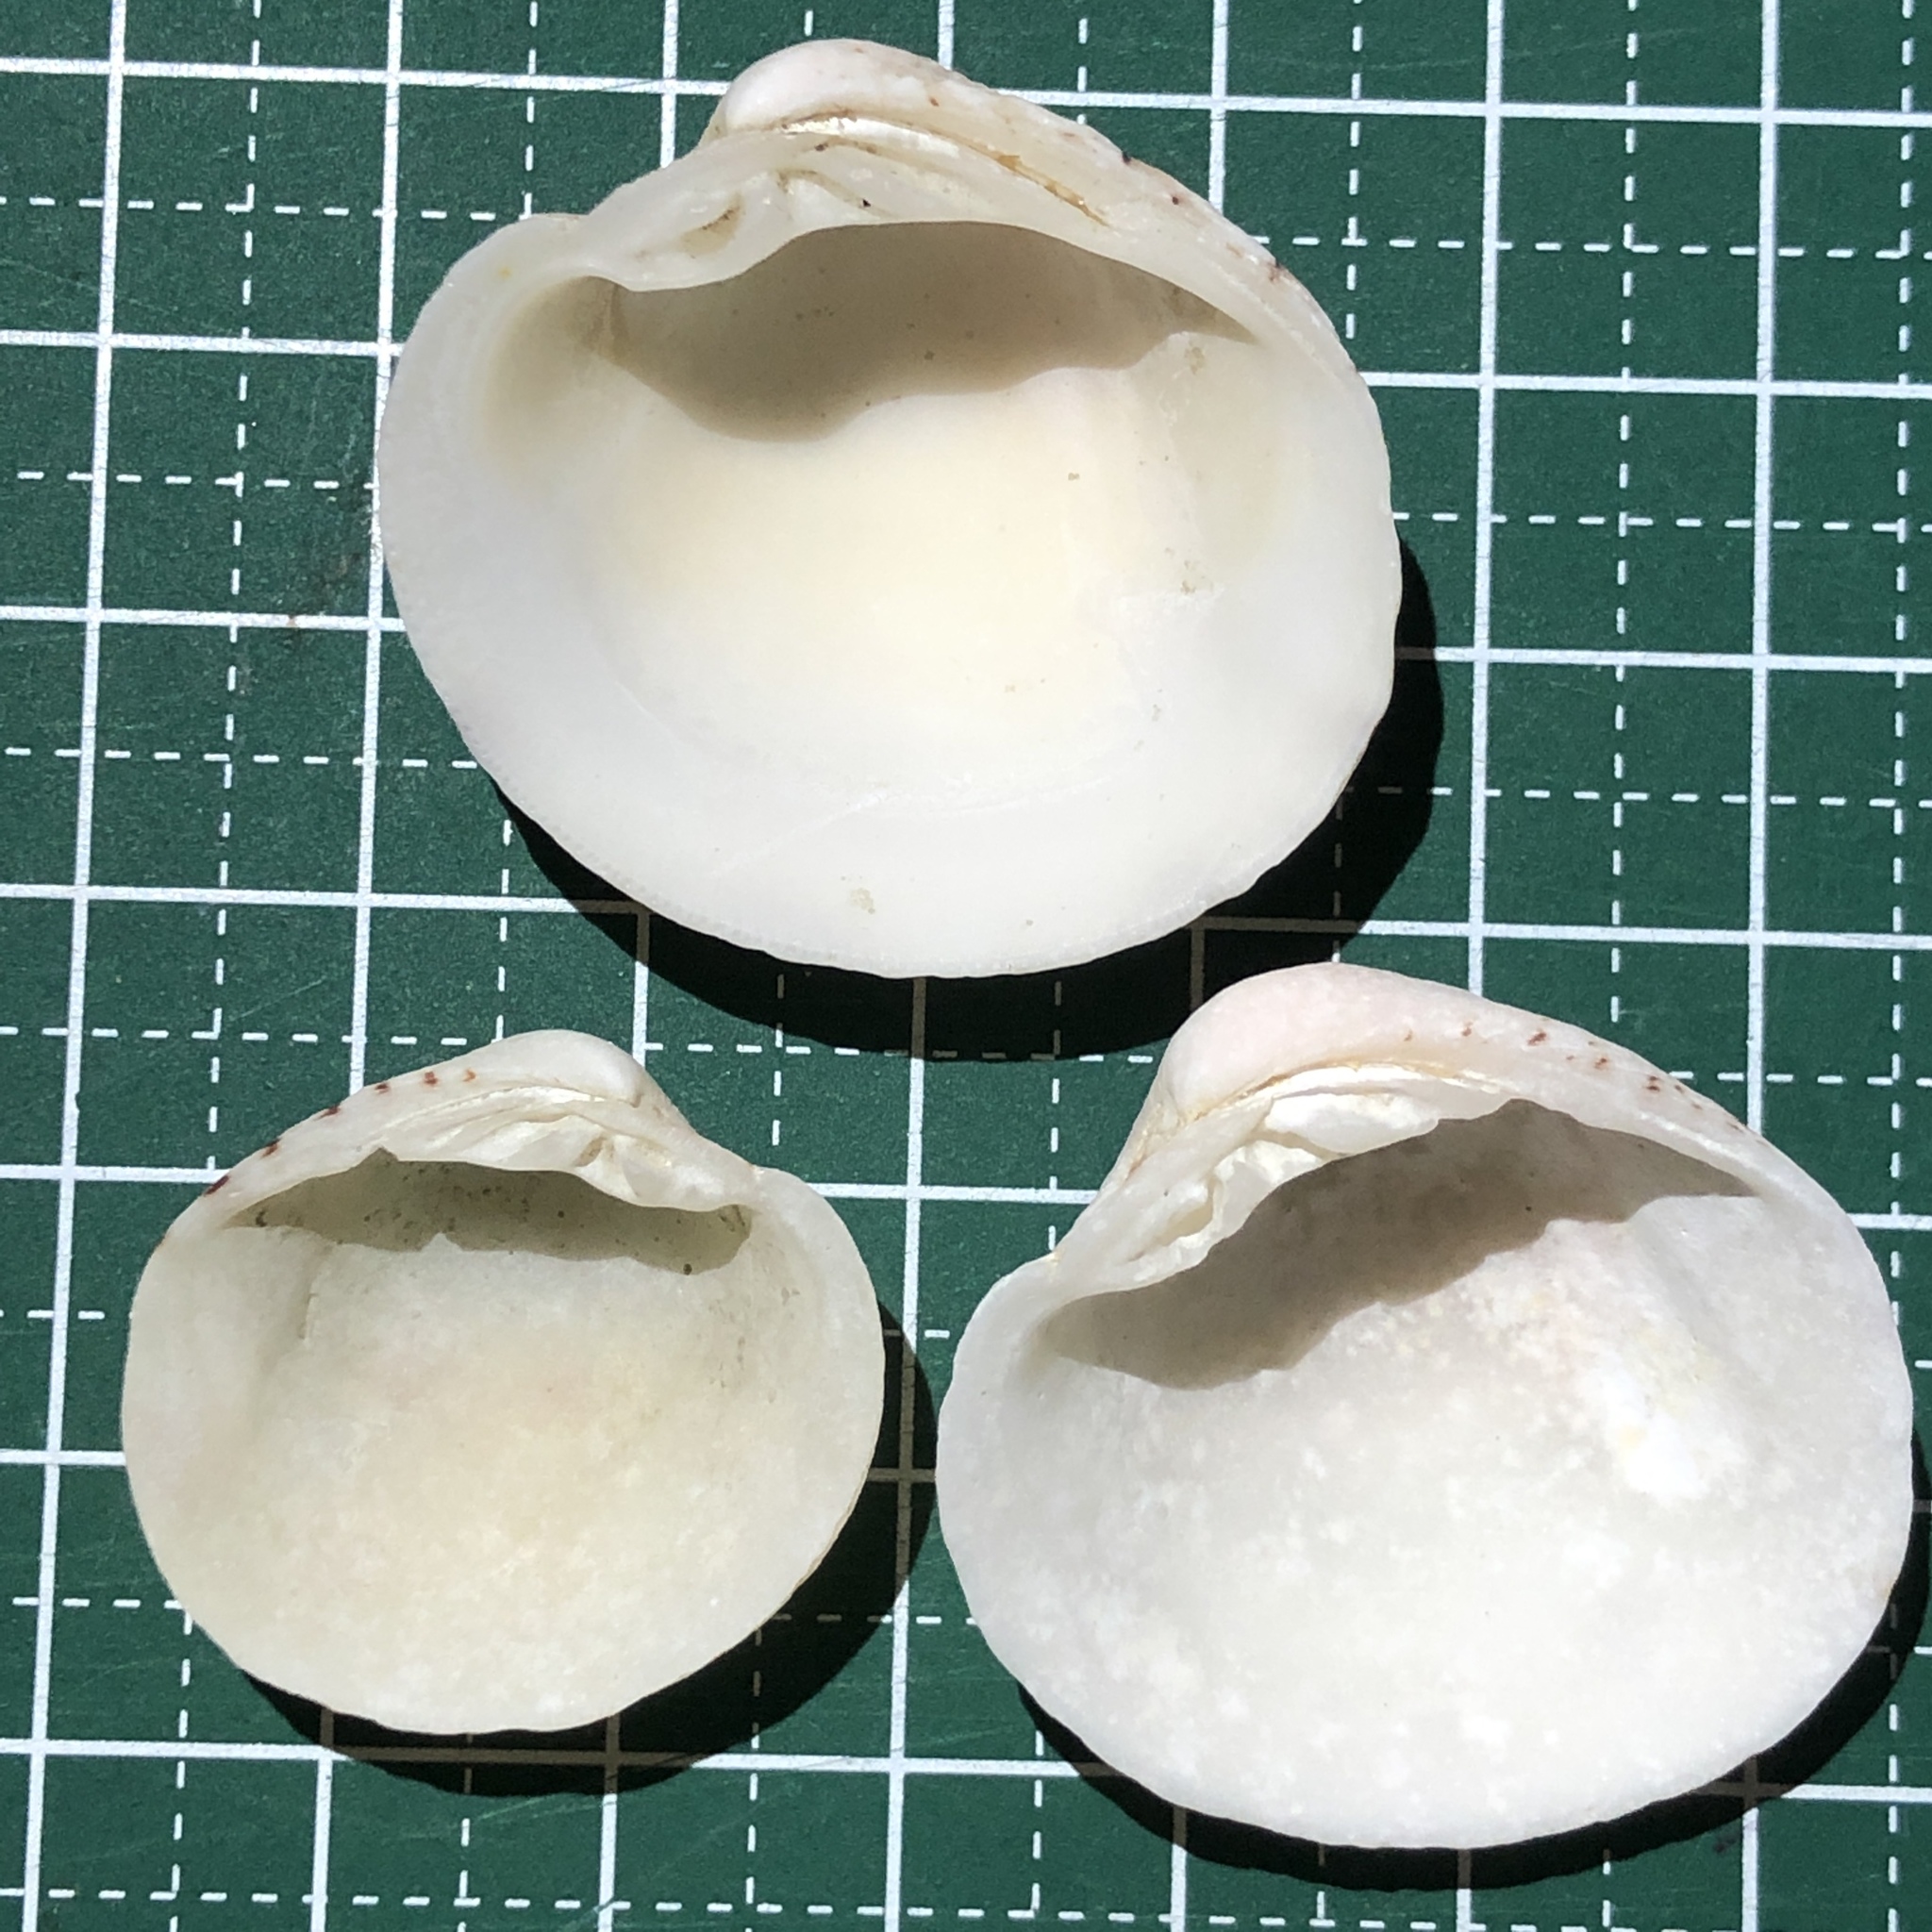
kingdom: Animalia
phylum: Mollusca
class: Bivalvia
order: Venerida
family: Veneridae
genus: Globivenus
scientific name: Globivenus toreuma
